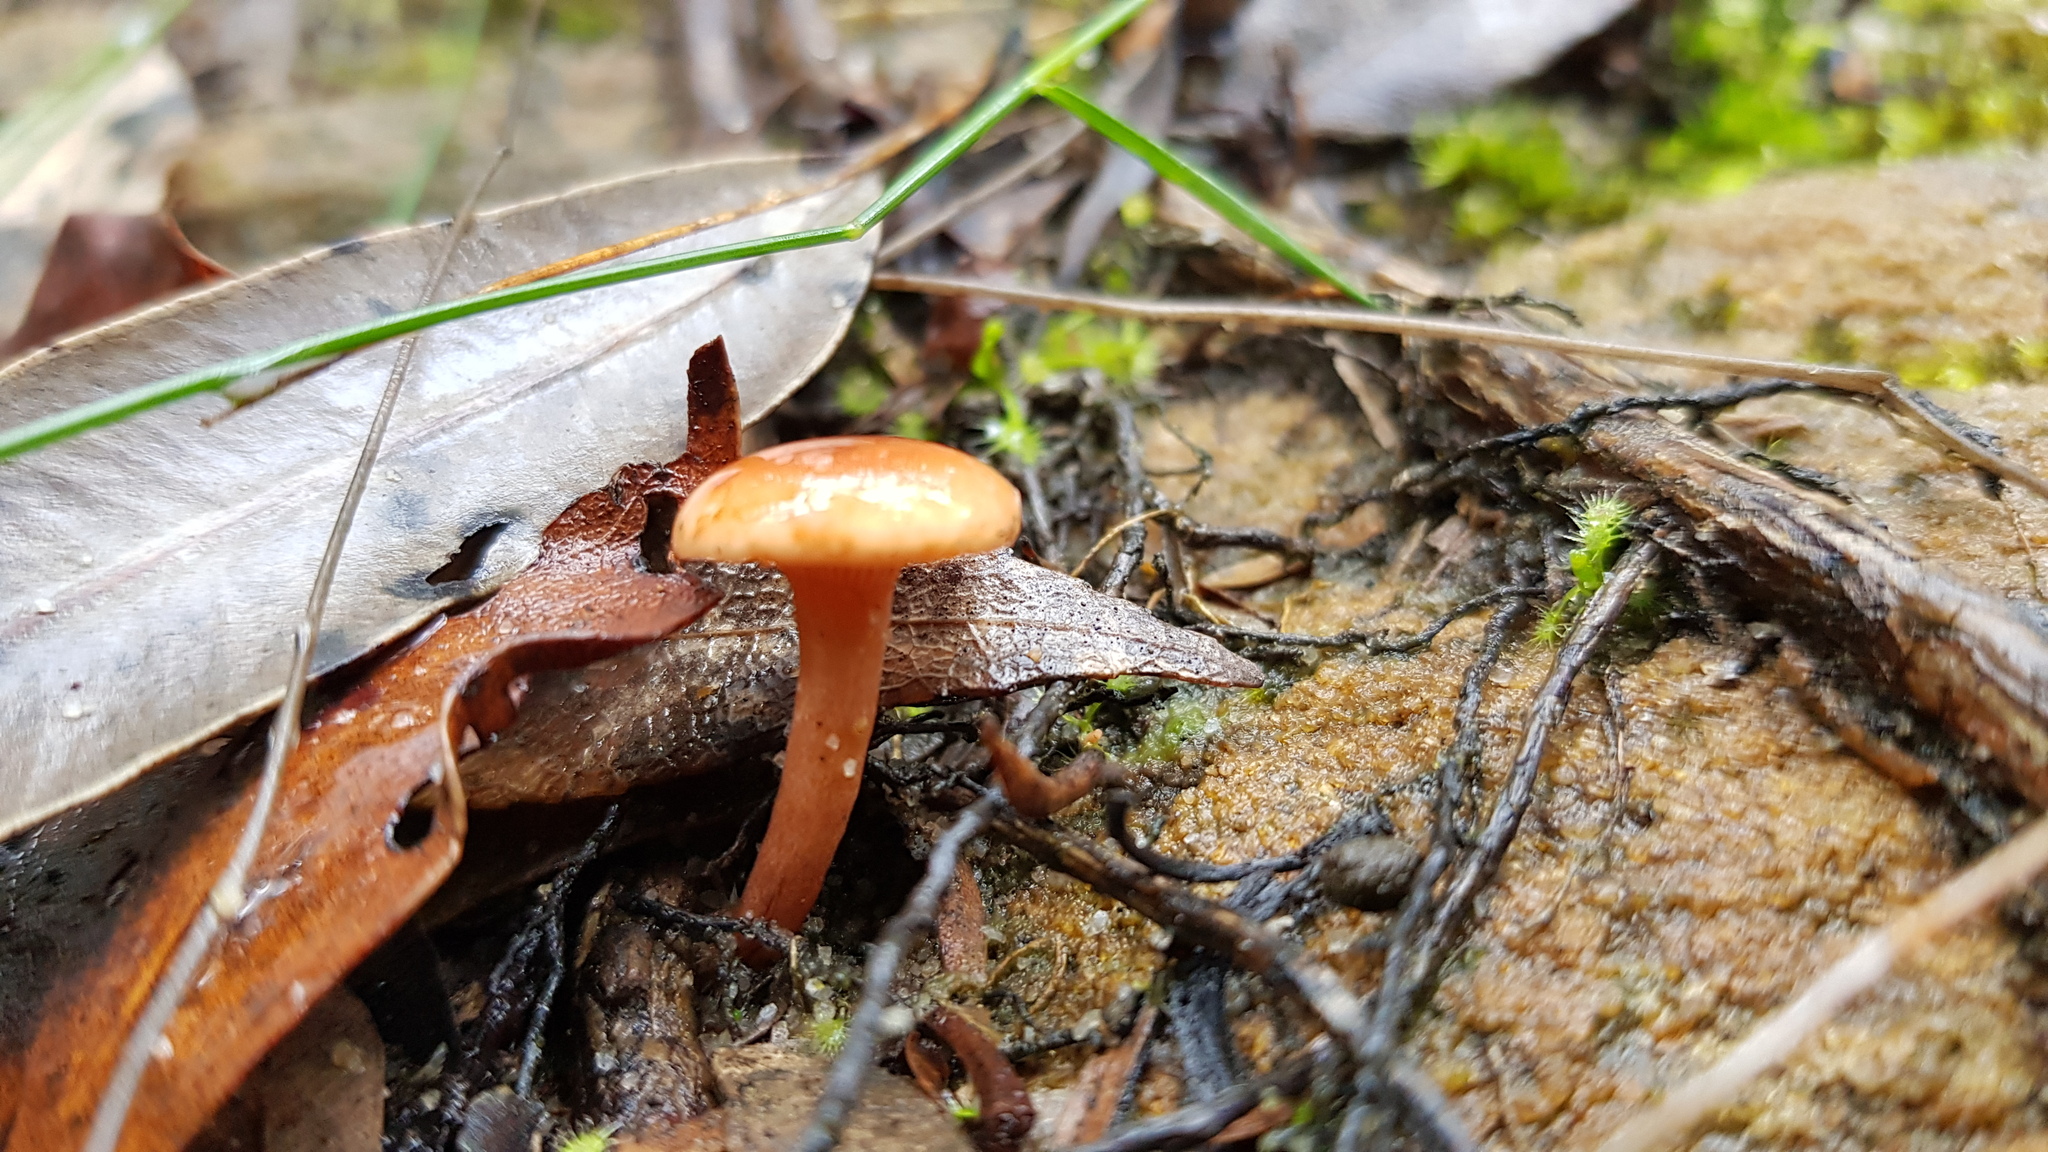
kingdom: Fungi
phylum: Basidiomycota
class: Agaricomycetes
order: Russulales
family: Russulaceae
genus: Lactarius
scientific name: Lactarius eucalypti
